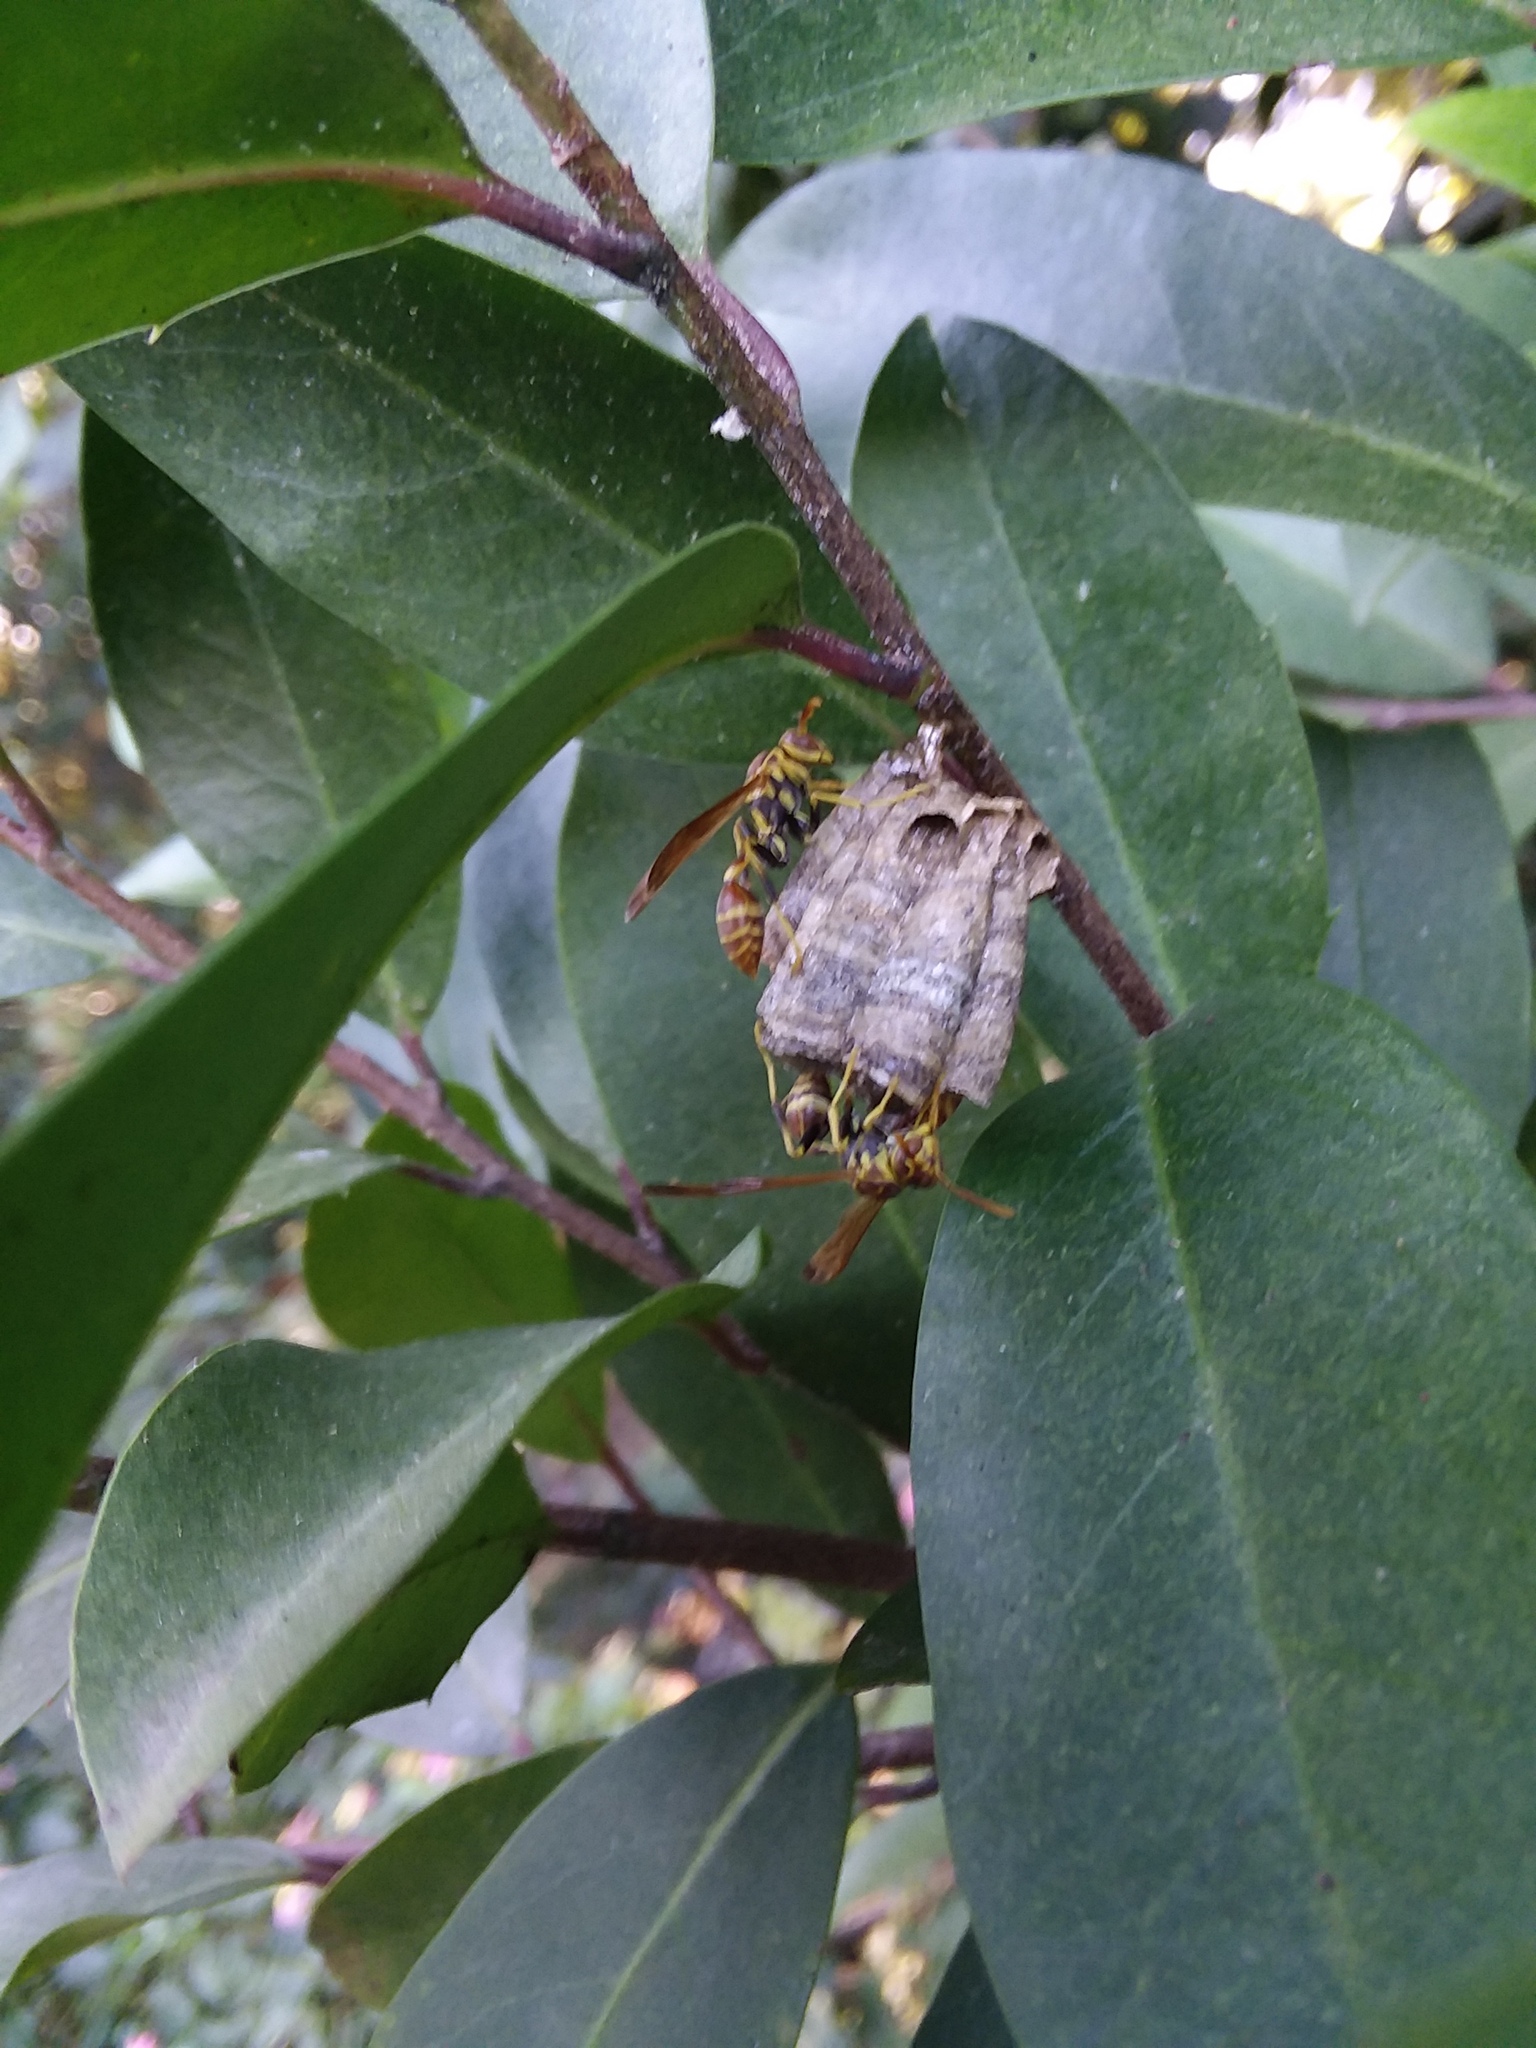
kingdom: Animalia
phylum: Arthropoda
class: Insecta
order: Hymenoptera
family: Vespidae
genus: Mischocyttarus
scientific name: Mischocyttarus mexicanus
